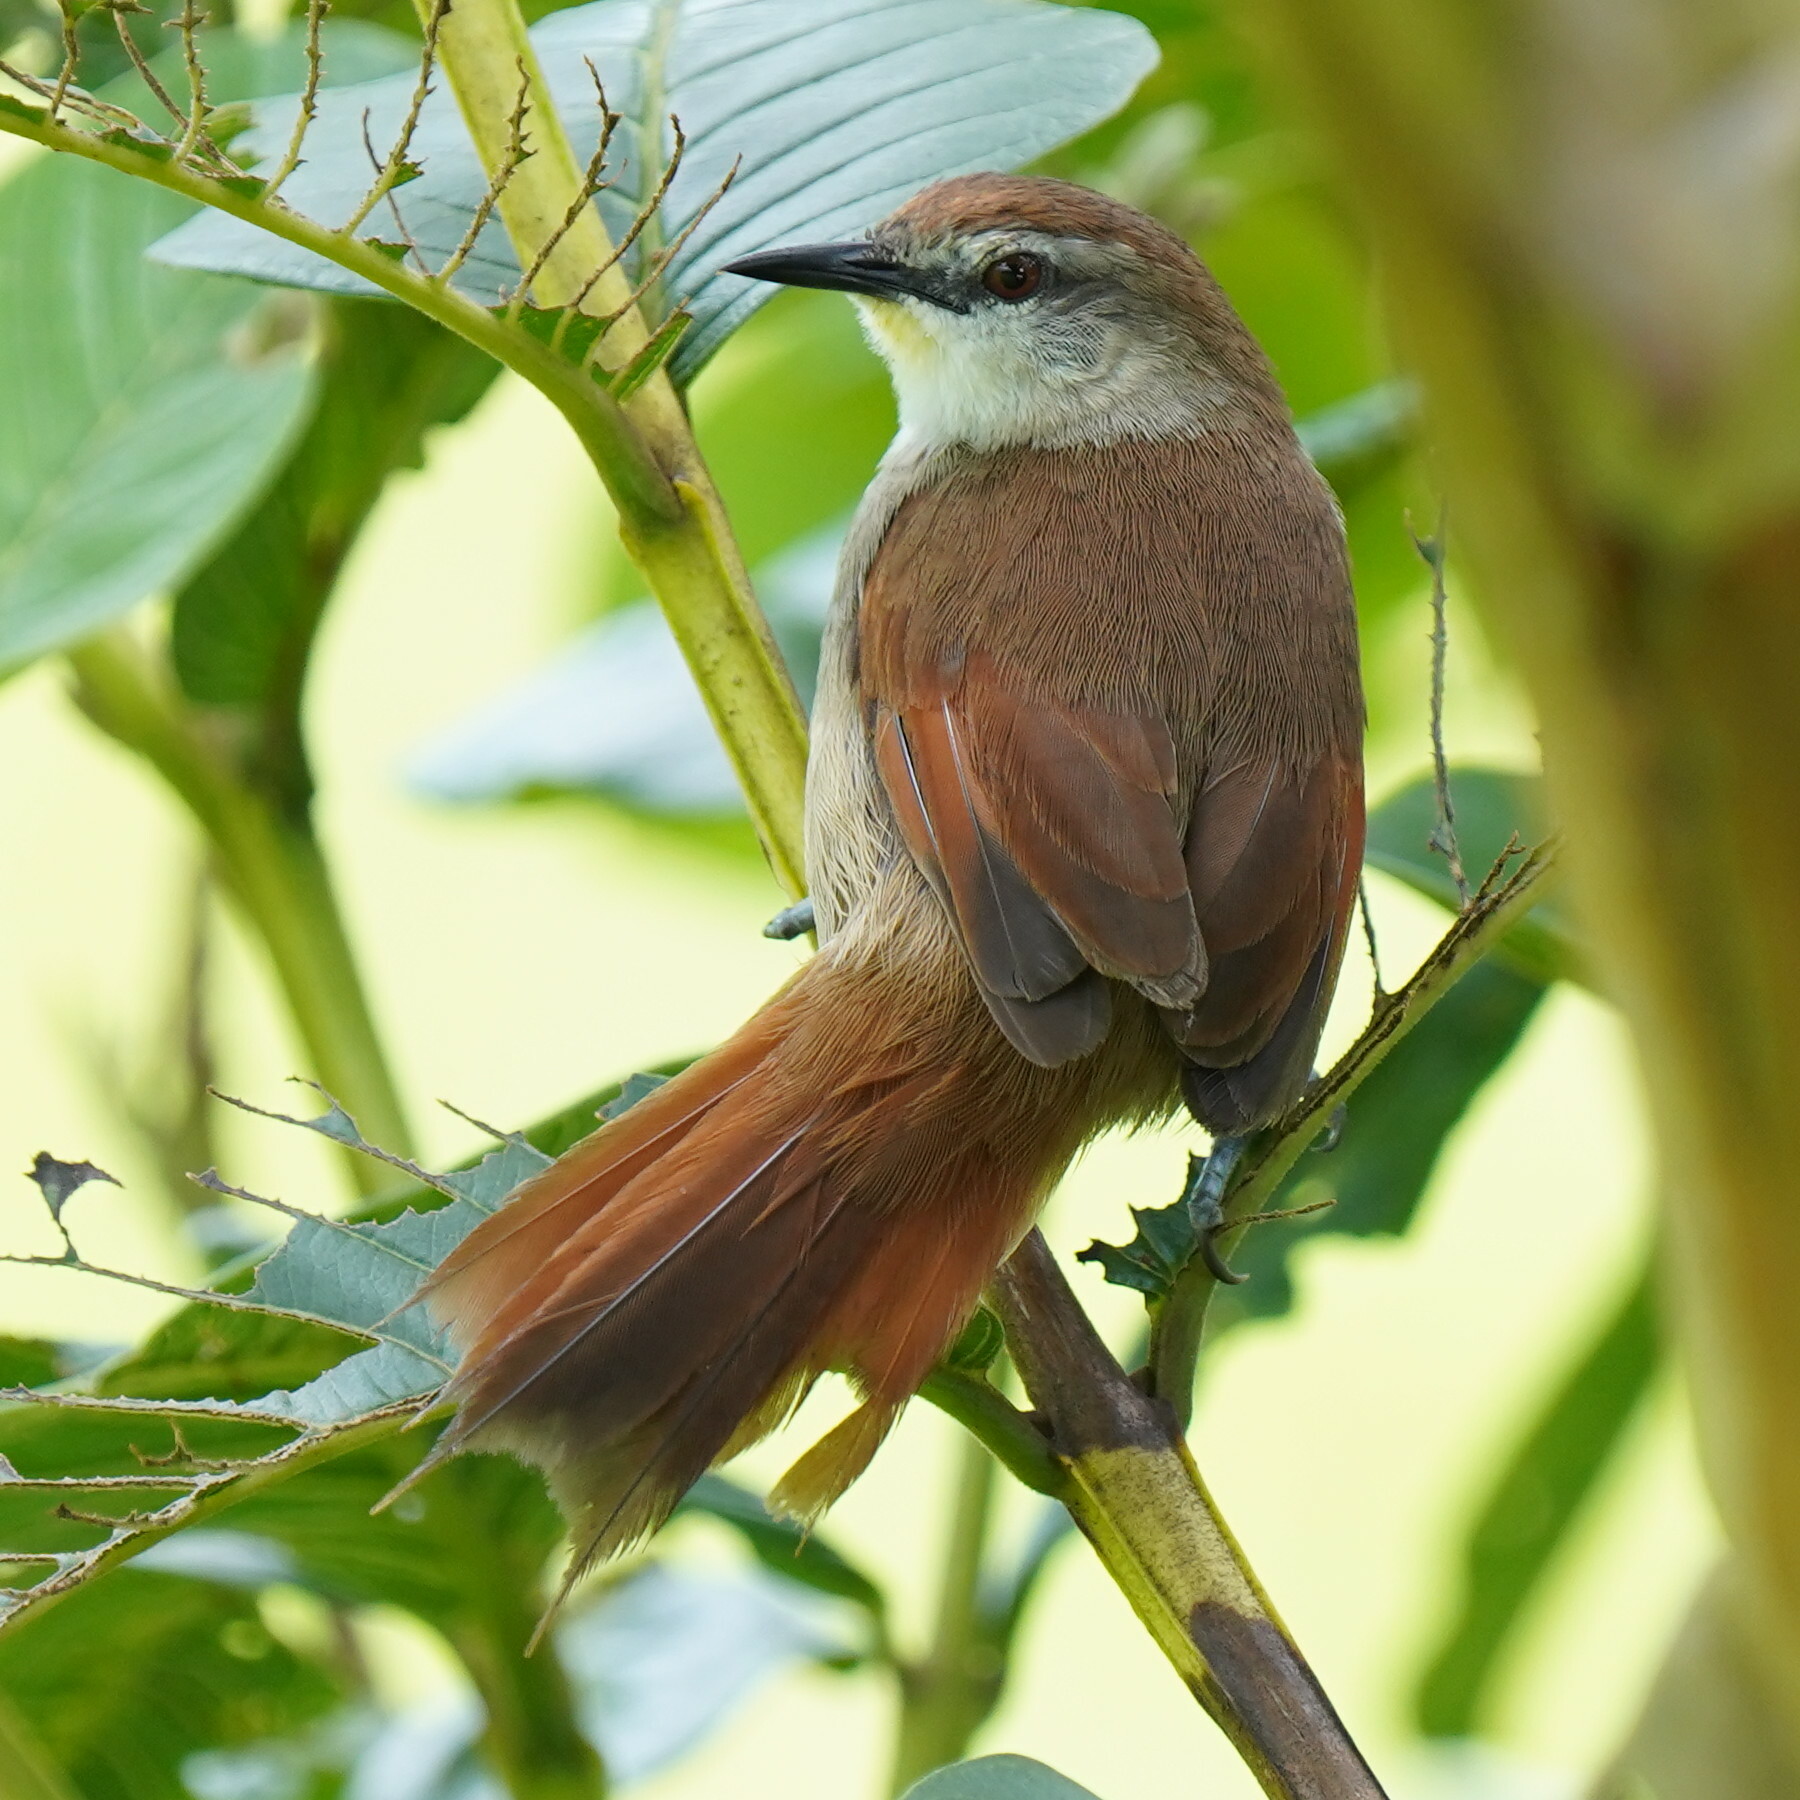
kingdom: Animalia
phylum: Chordata
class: Aves
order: Passeriformes
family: Furnariidae
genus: Certhiaxis
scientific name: Certhiaxis cinnamomeus
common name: Yellow-chinned spinetail
